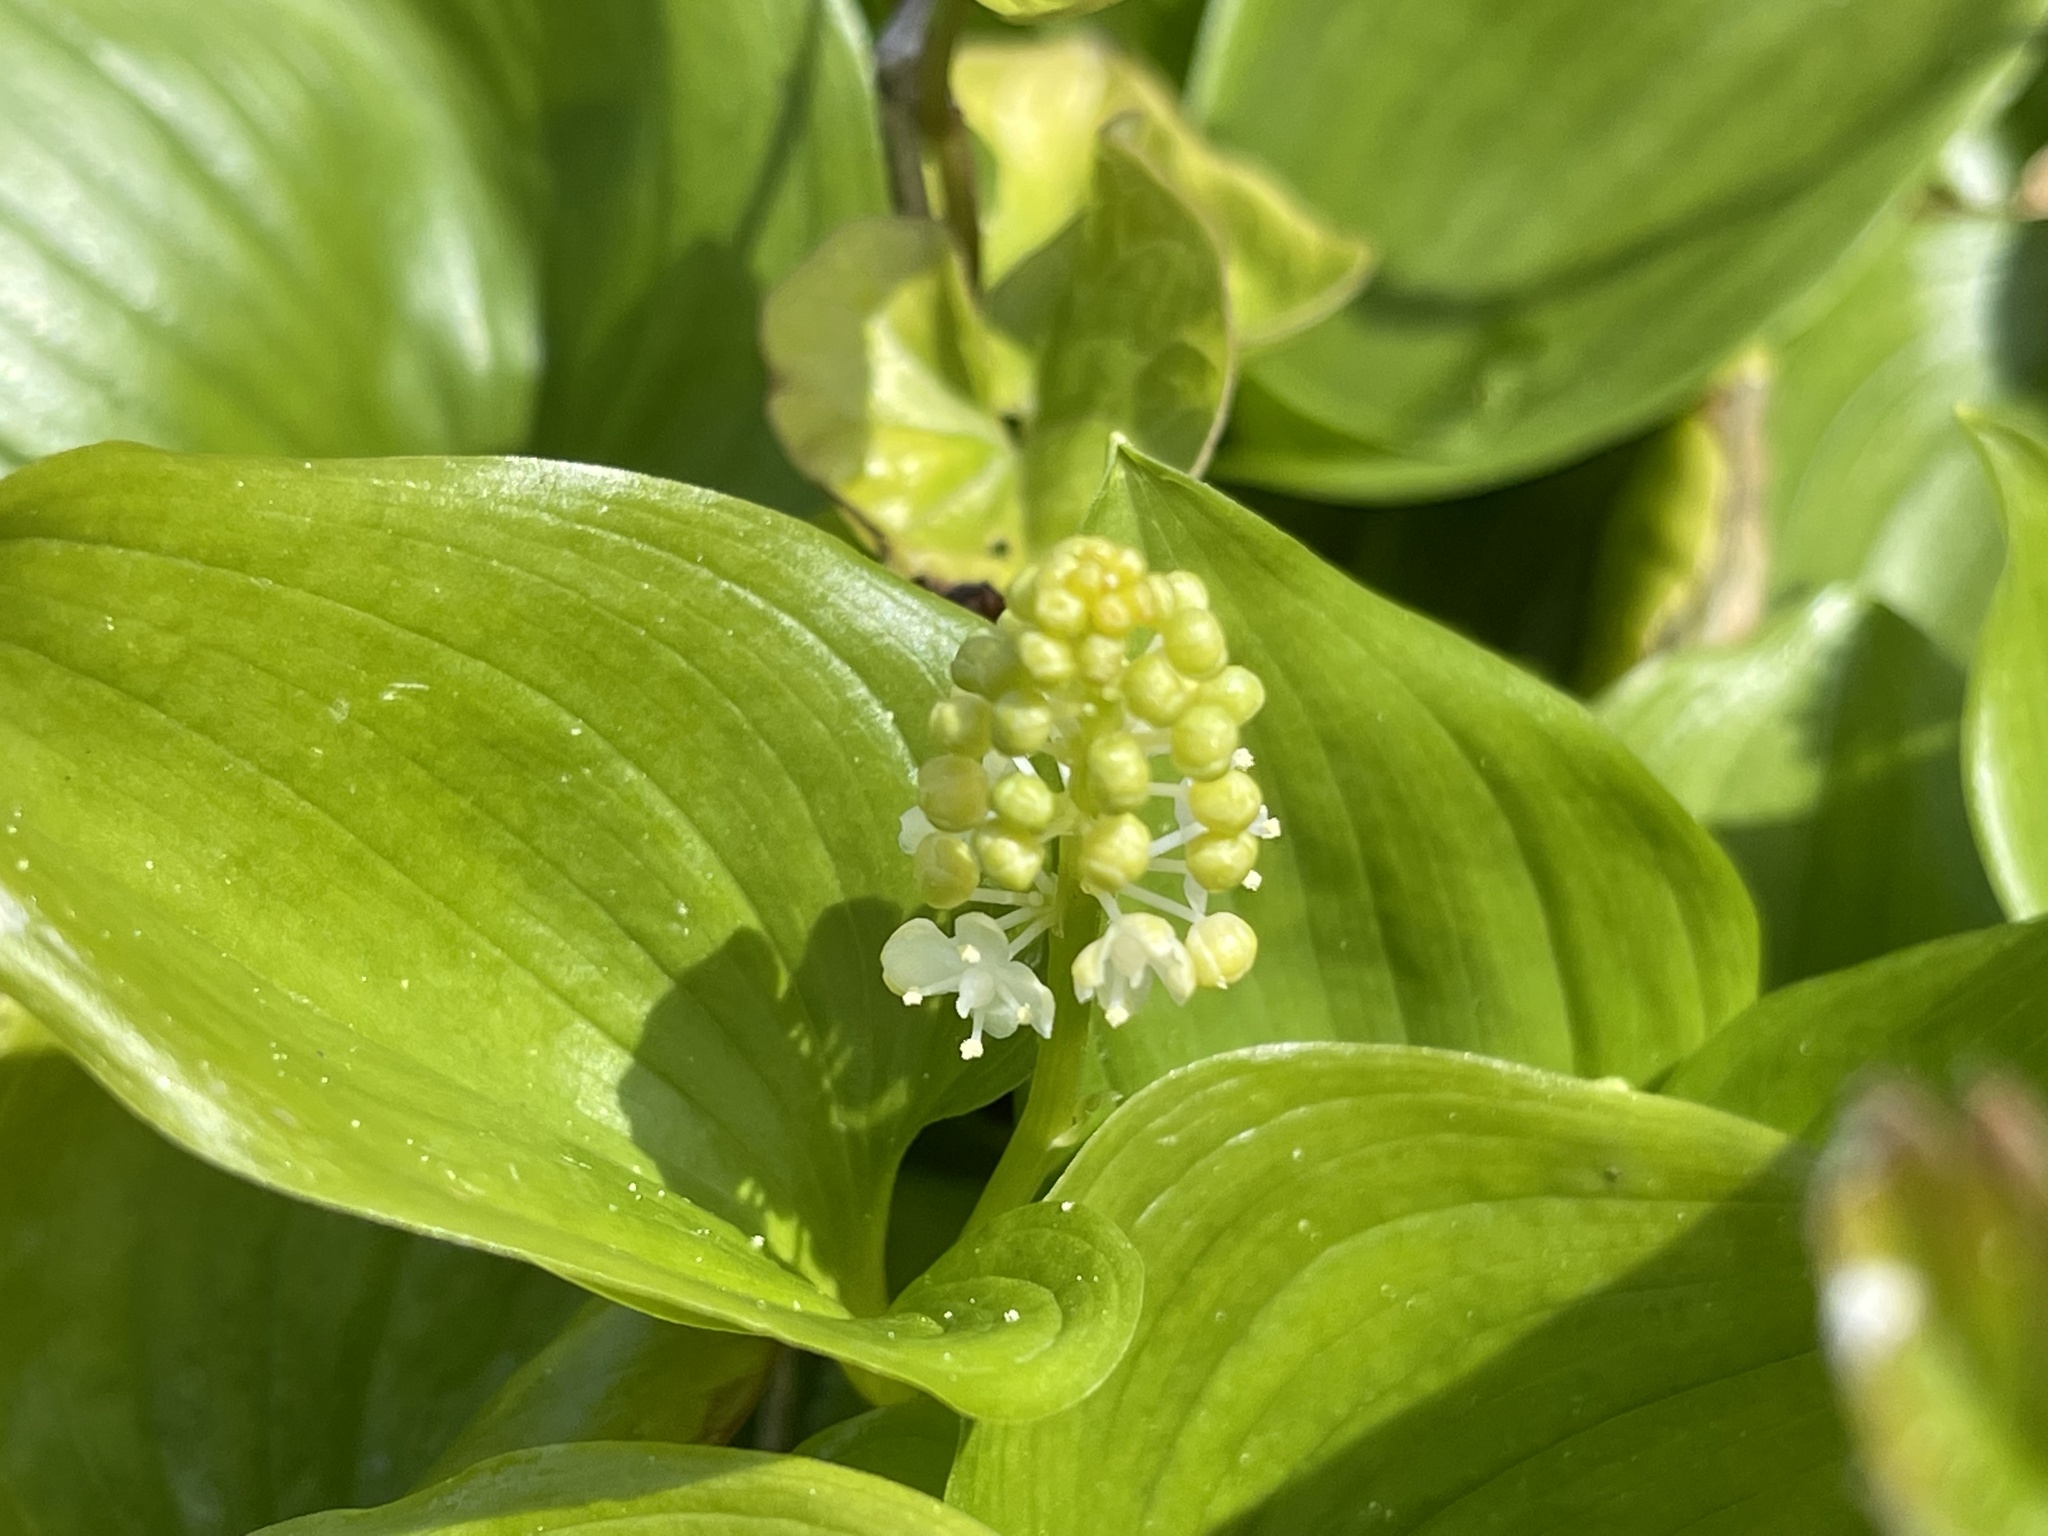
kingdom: Plantae
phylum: Tracheophyta
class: Liliopsida
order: Asparagales
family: Asparagaceae
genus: Maianthemum
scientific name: Maianthemum dilatatum
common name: False lily-of-the-valley
